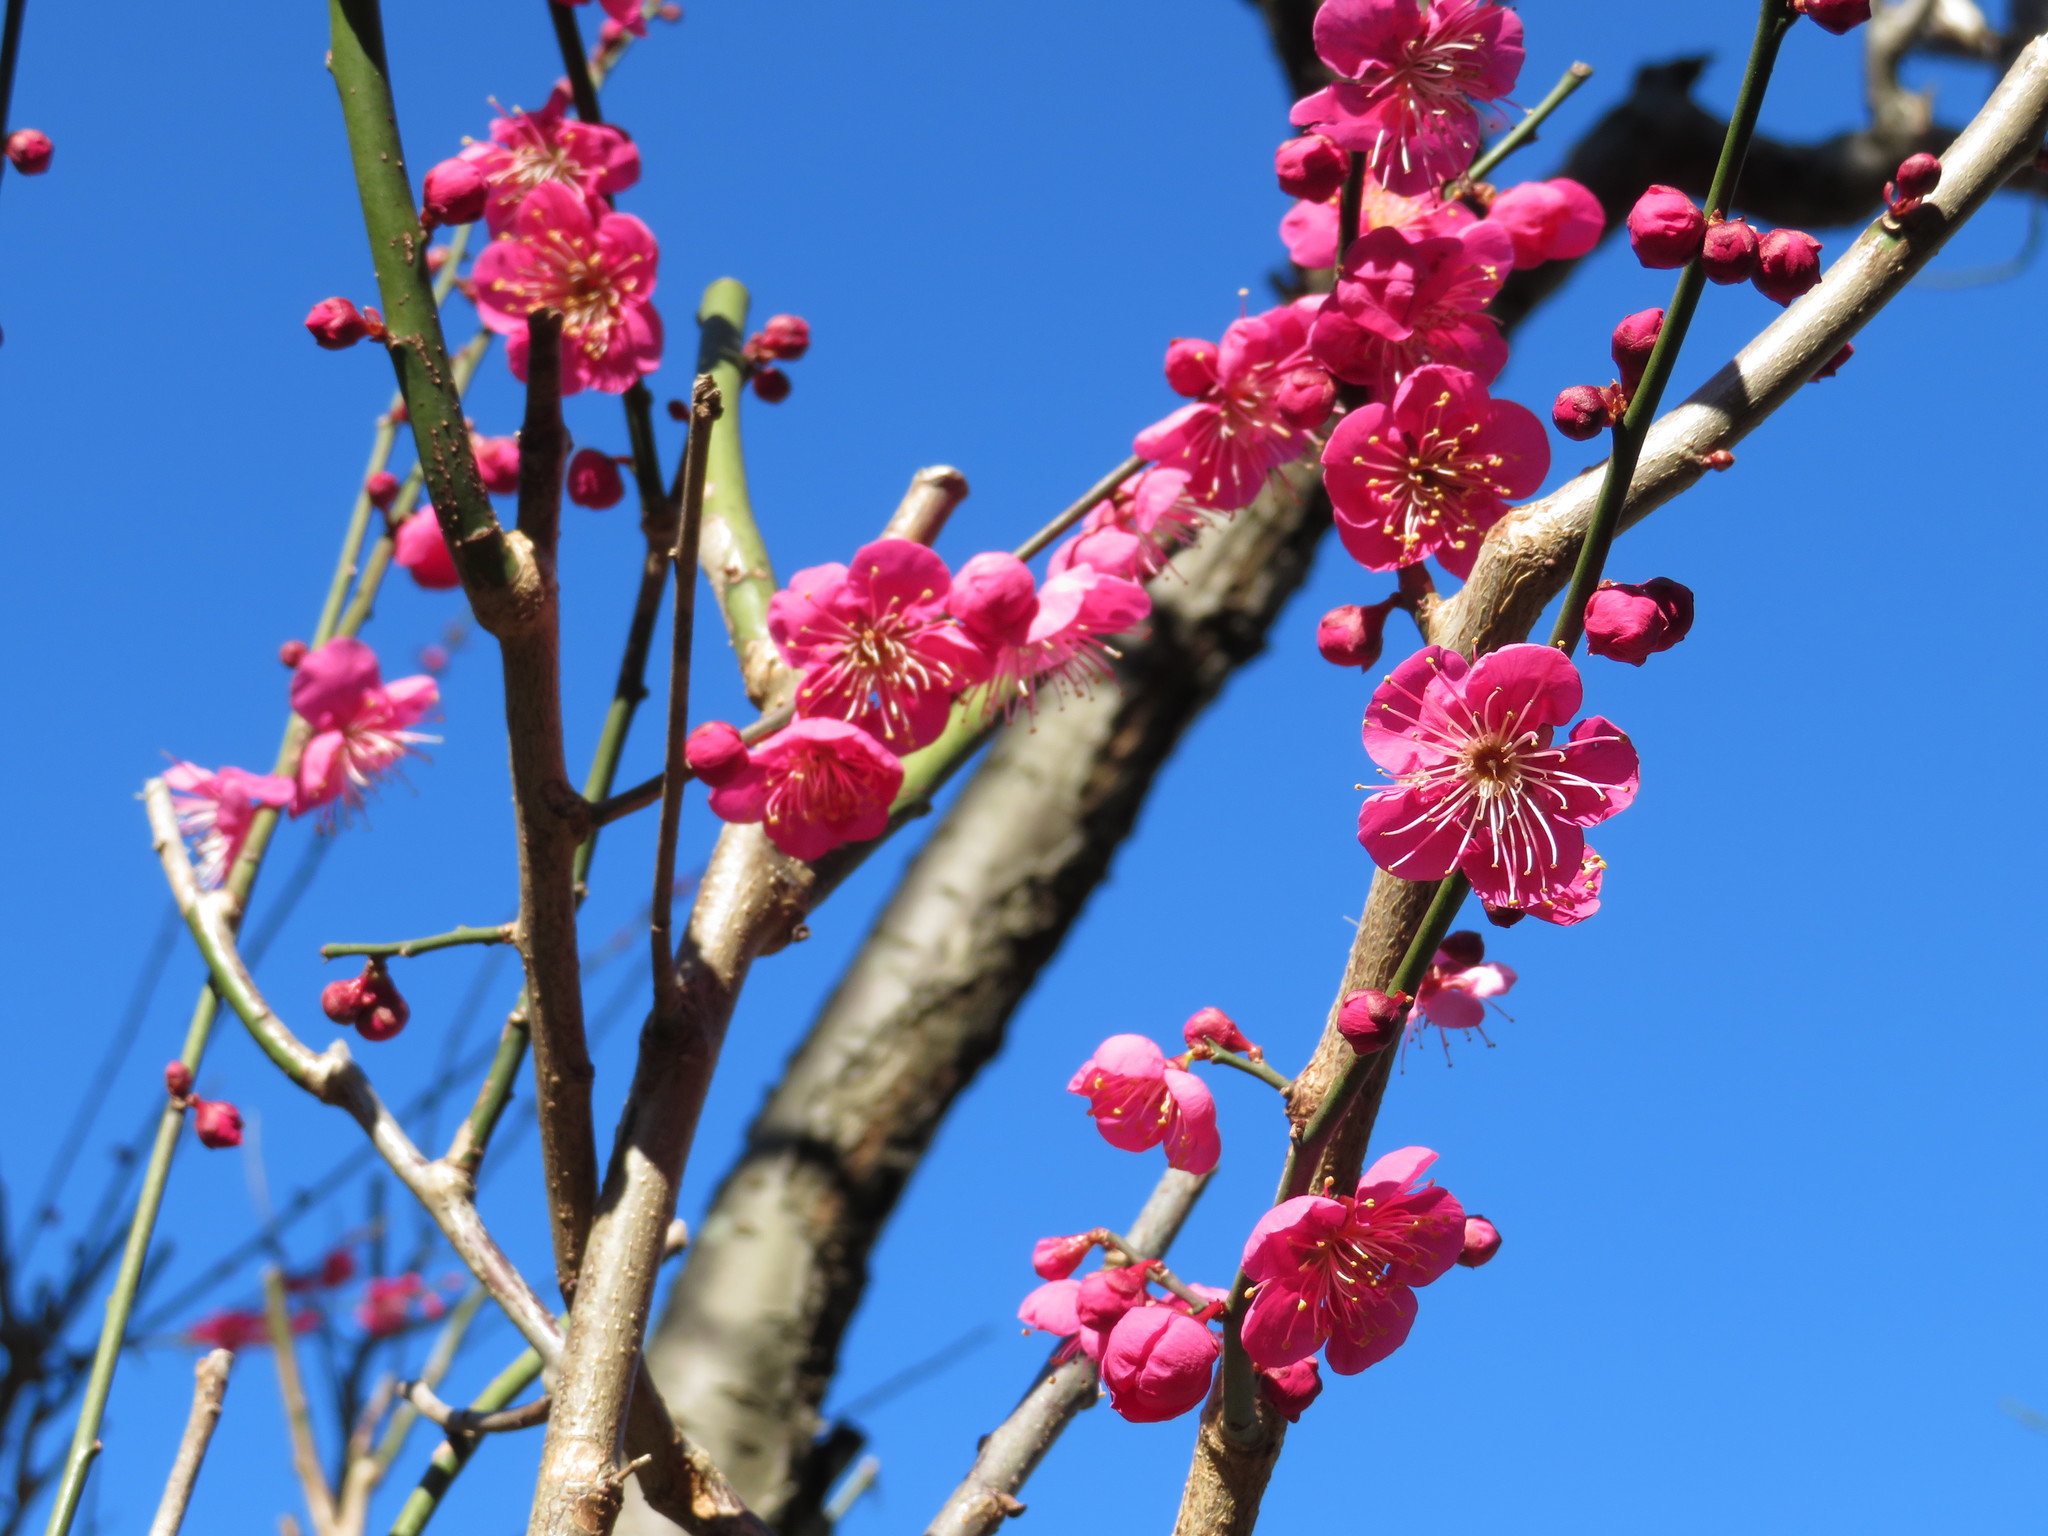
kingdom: Plantae
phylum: Tracheophyta
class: Magnoliopsida
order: Rosales
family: Rosaceae
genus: Prunus
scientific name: Prunus mume
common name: Japanese apricot
